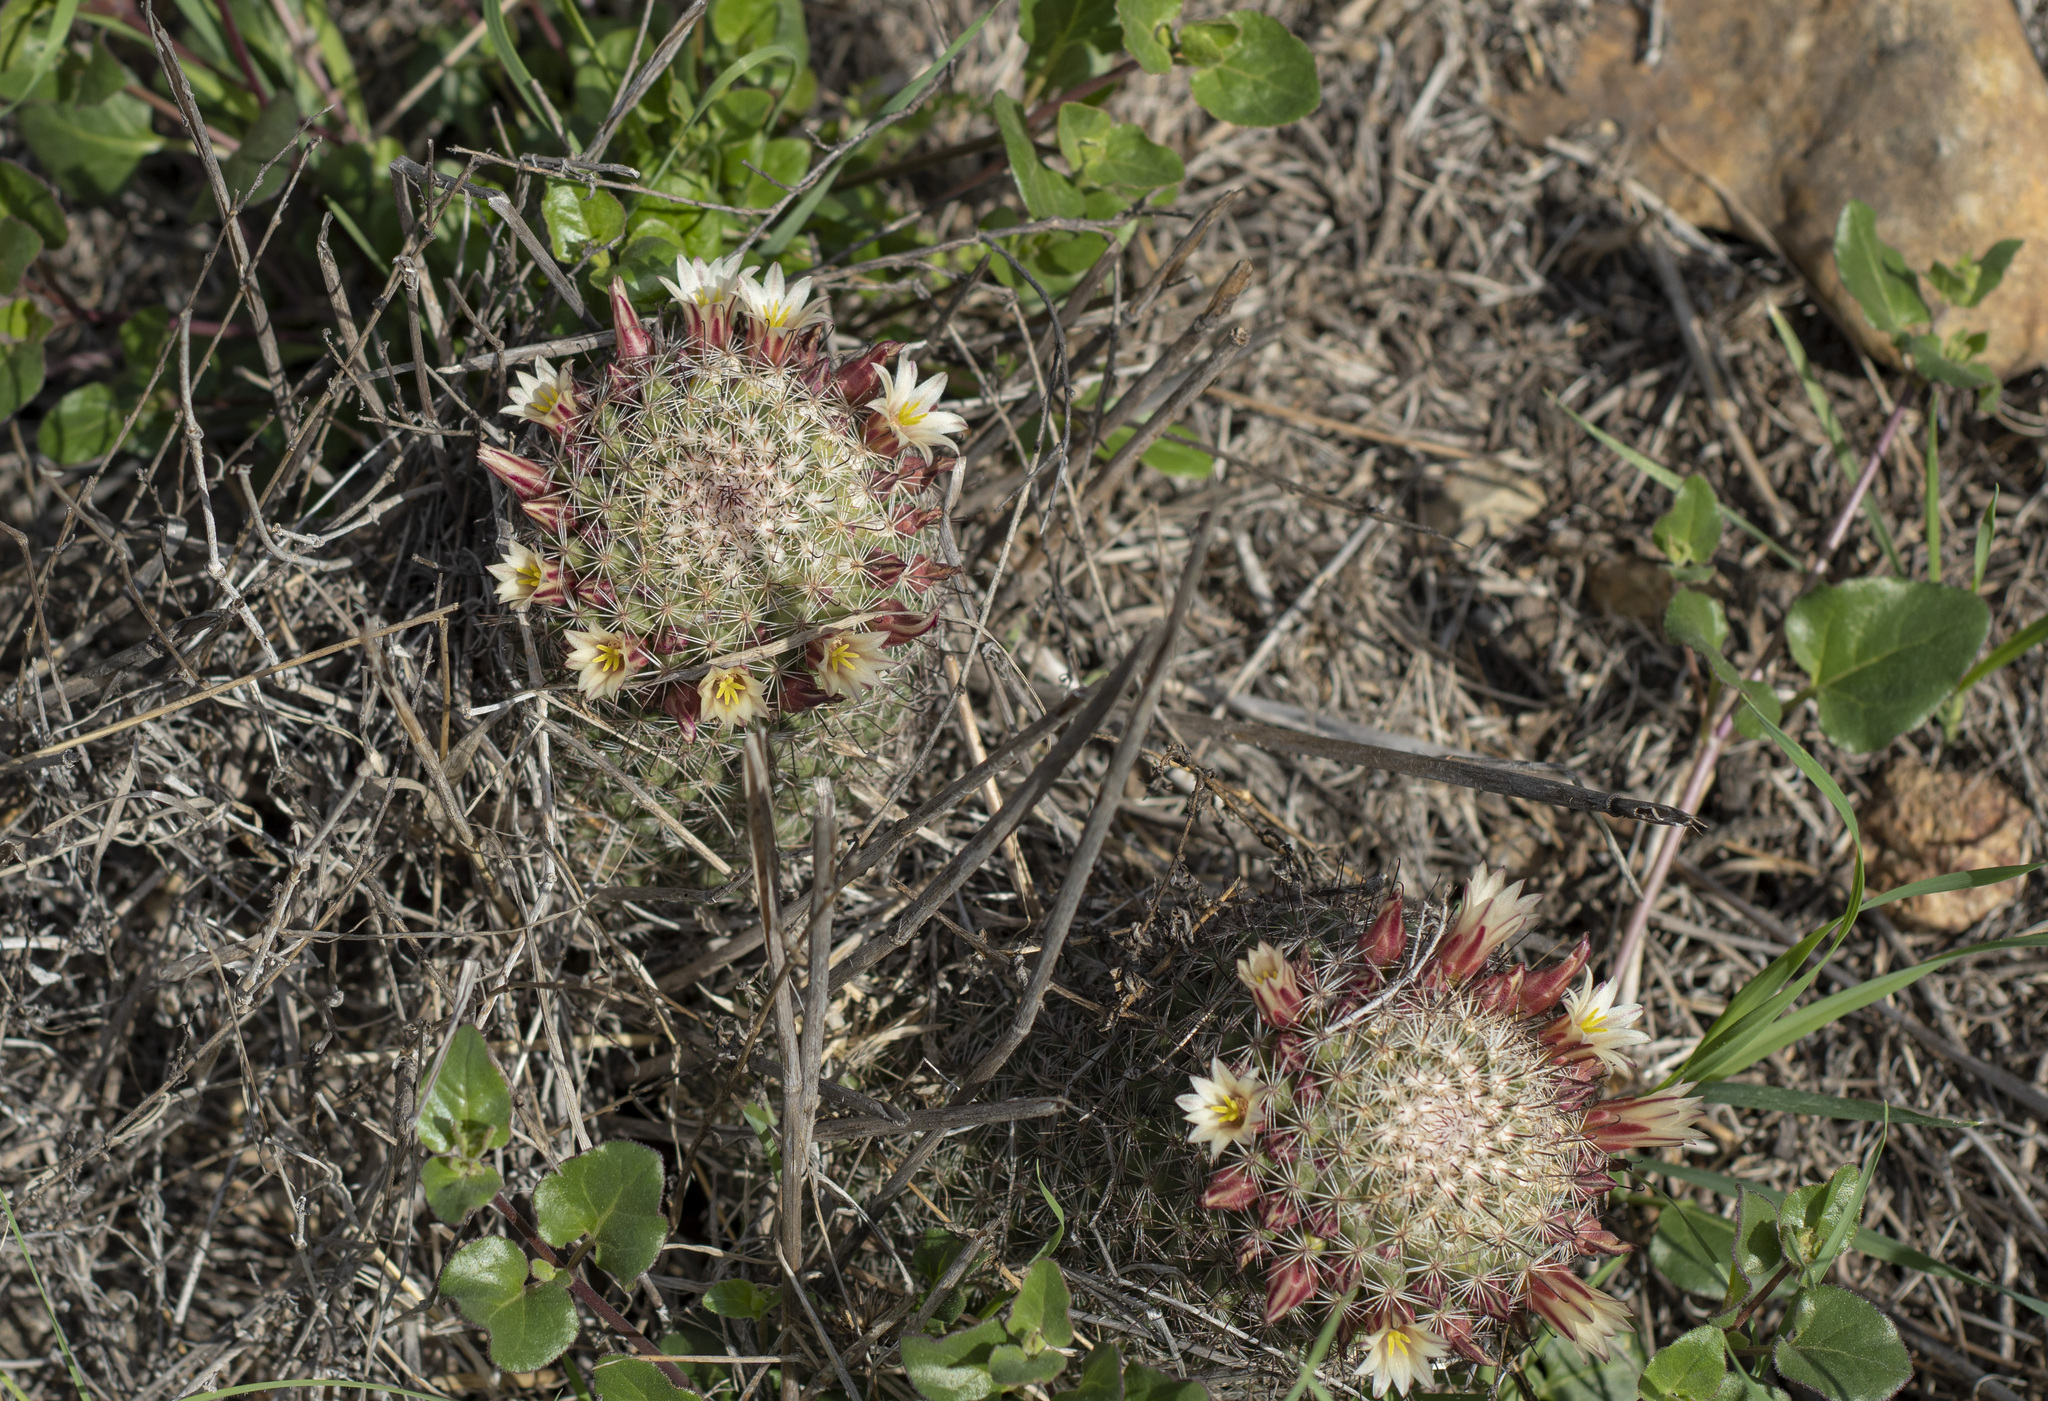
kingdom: Plantae
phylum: Tracheophyta
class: Magnoliopsida
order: Caryophyllales
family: Cactaceae
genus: Cochemiea
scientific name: Cochemiea dioica
